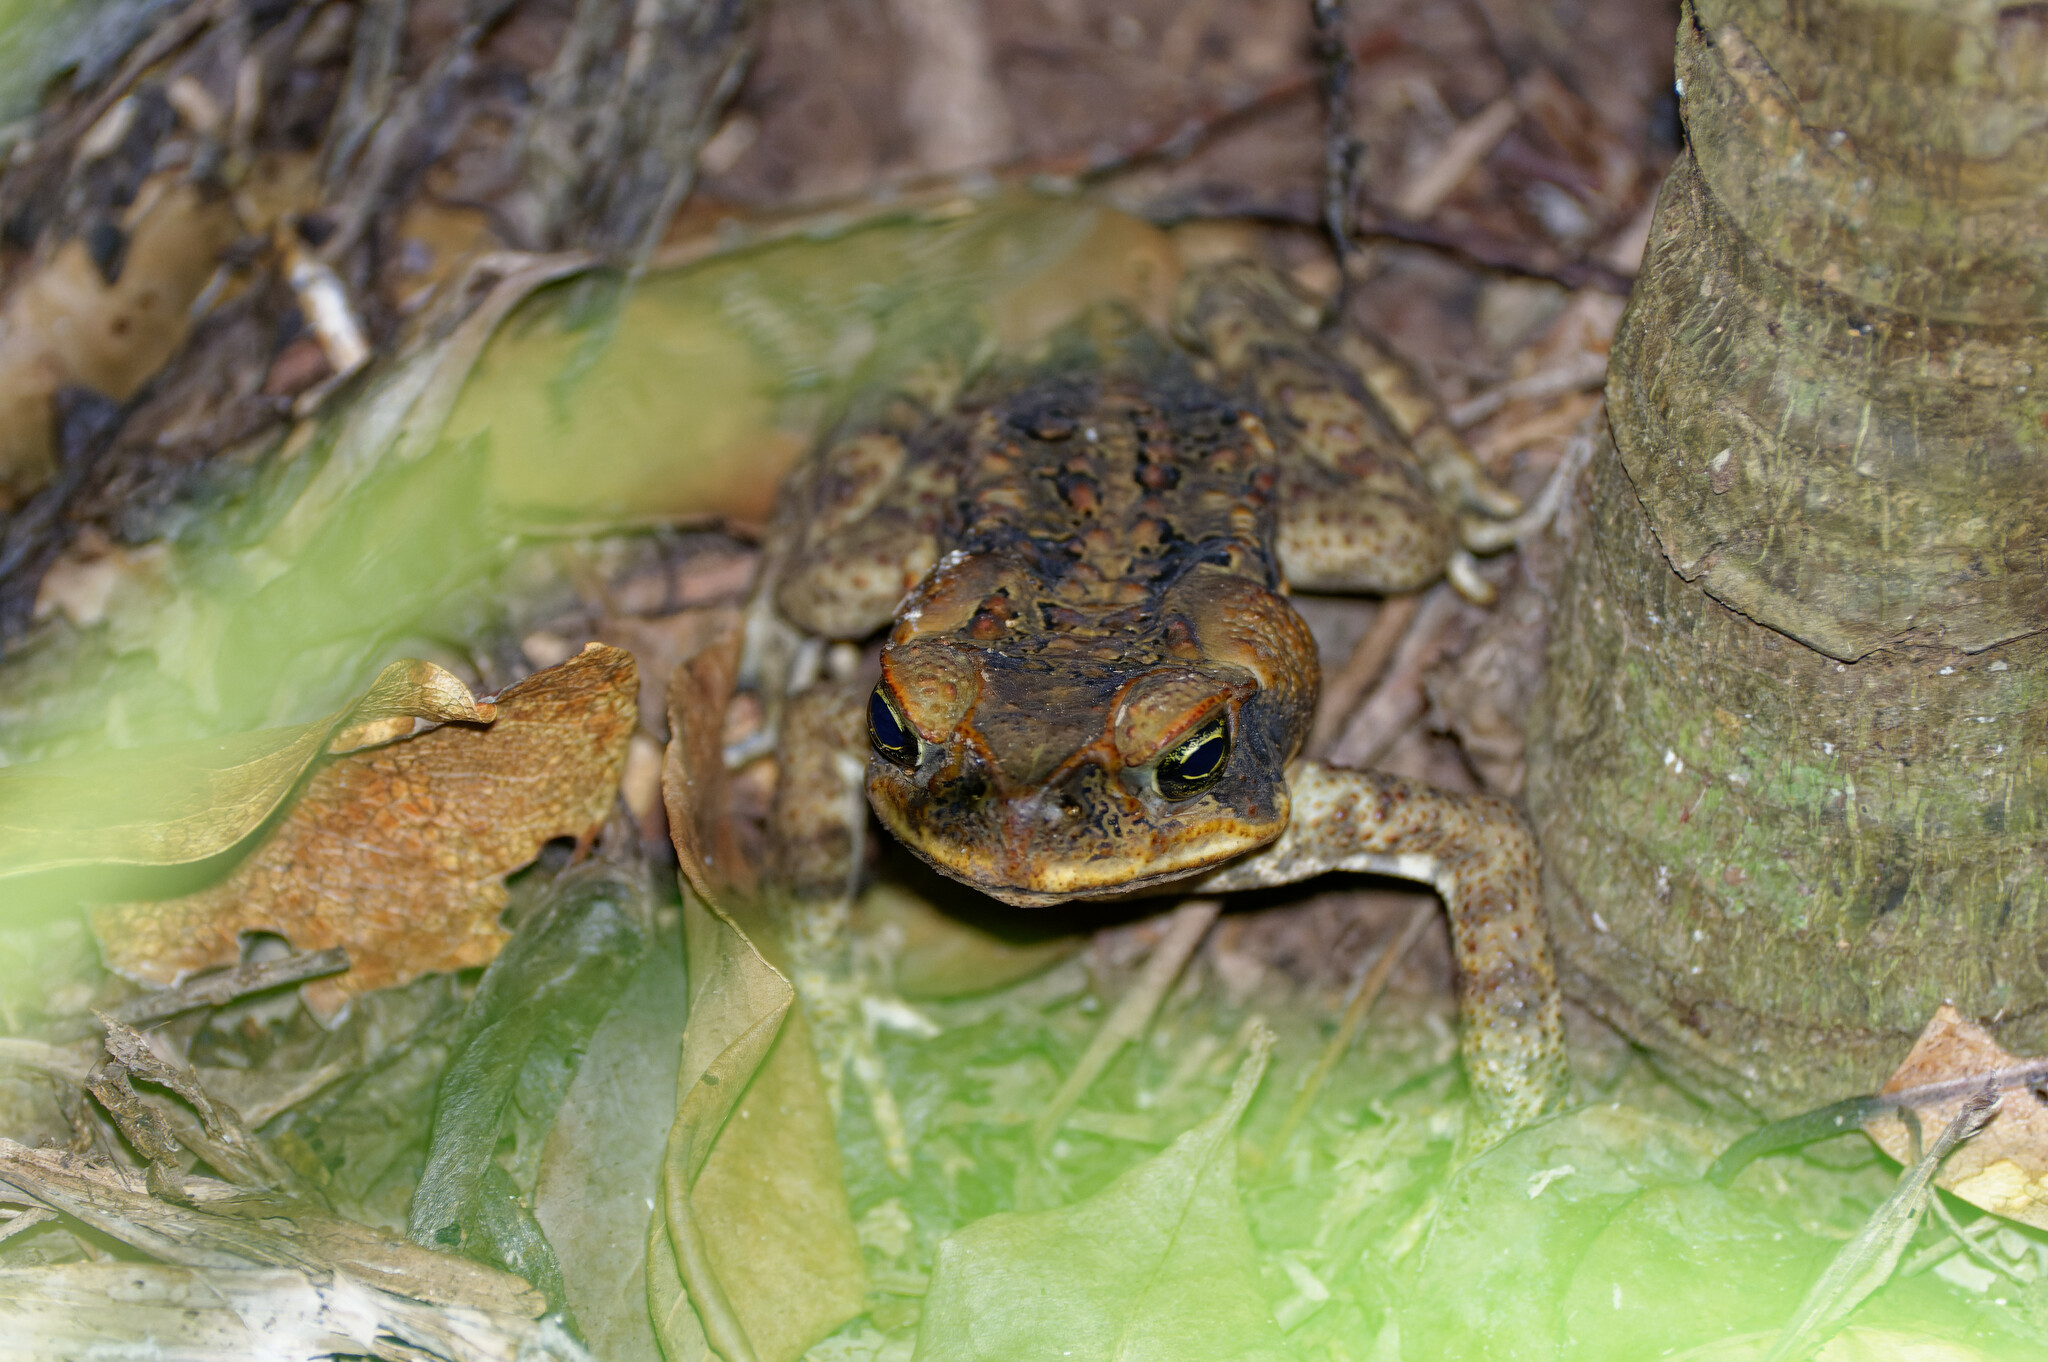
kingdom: Animalia
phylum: Chordata
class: Amphibia
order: Anura
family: Bufonidae
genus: Rhinella
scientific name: Rhinella marina
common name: Cane toad
